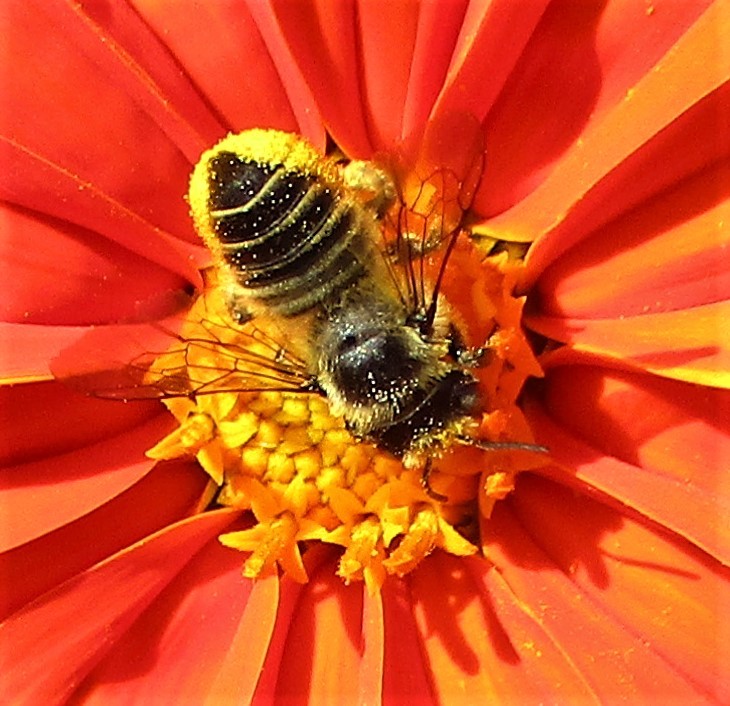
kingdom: Animalia
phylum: Arthropoda
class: Insecta
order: Hymenoptera
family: Megachilidae
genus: Megachile
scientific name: Megachile perihirta
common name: Western leafcutter
